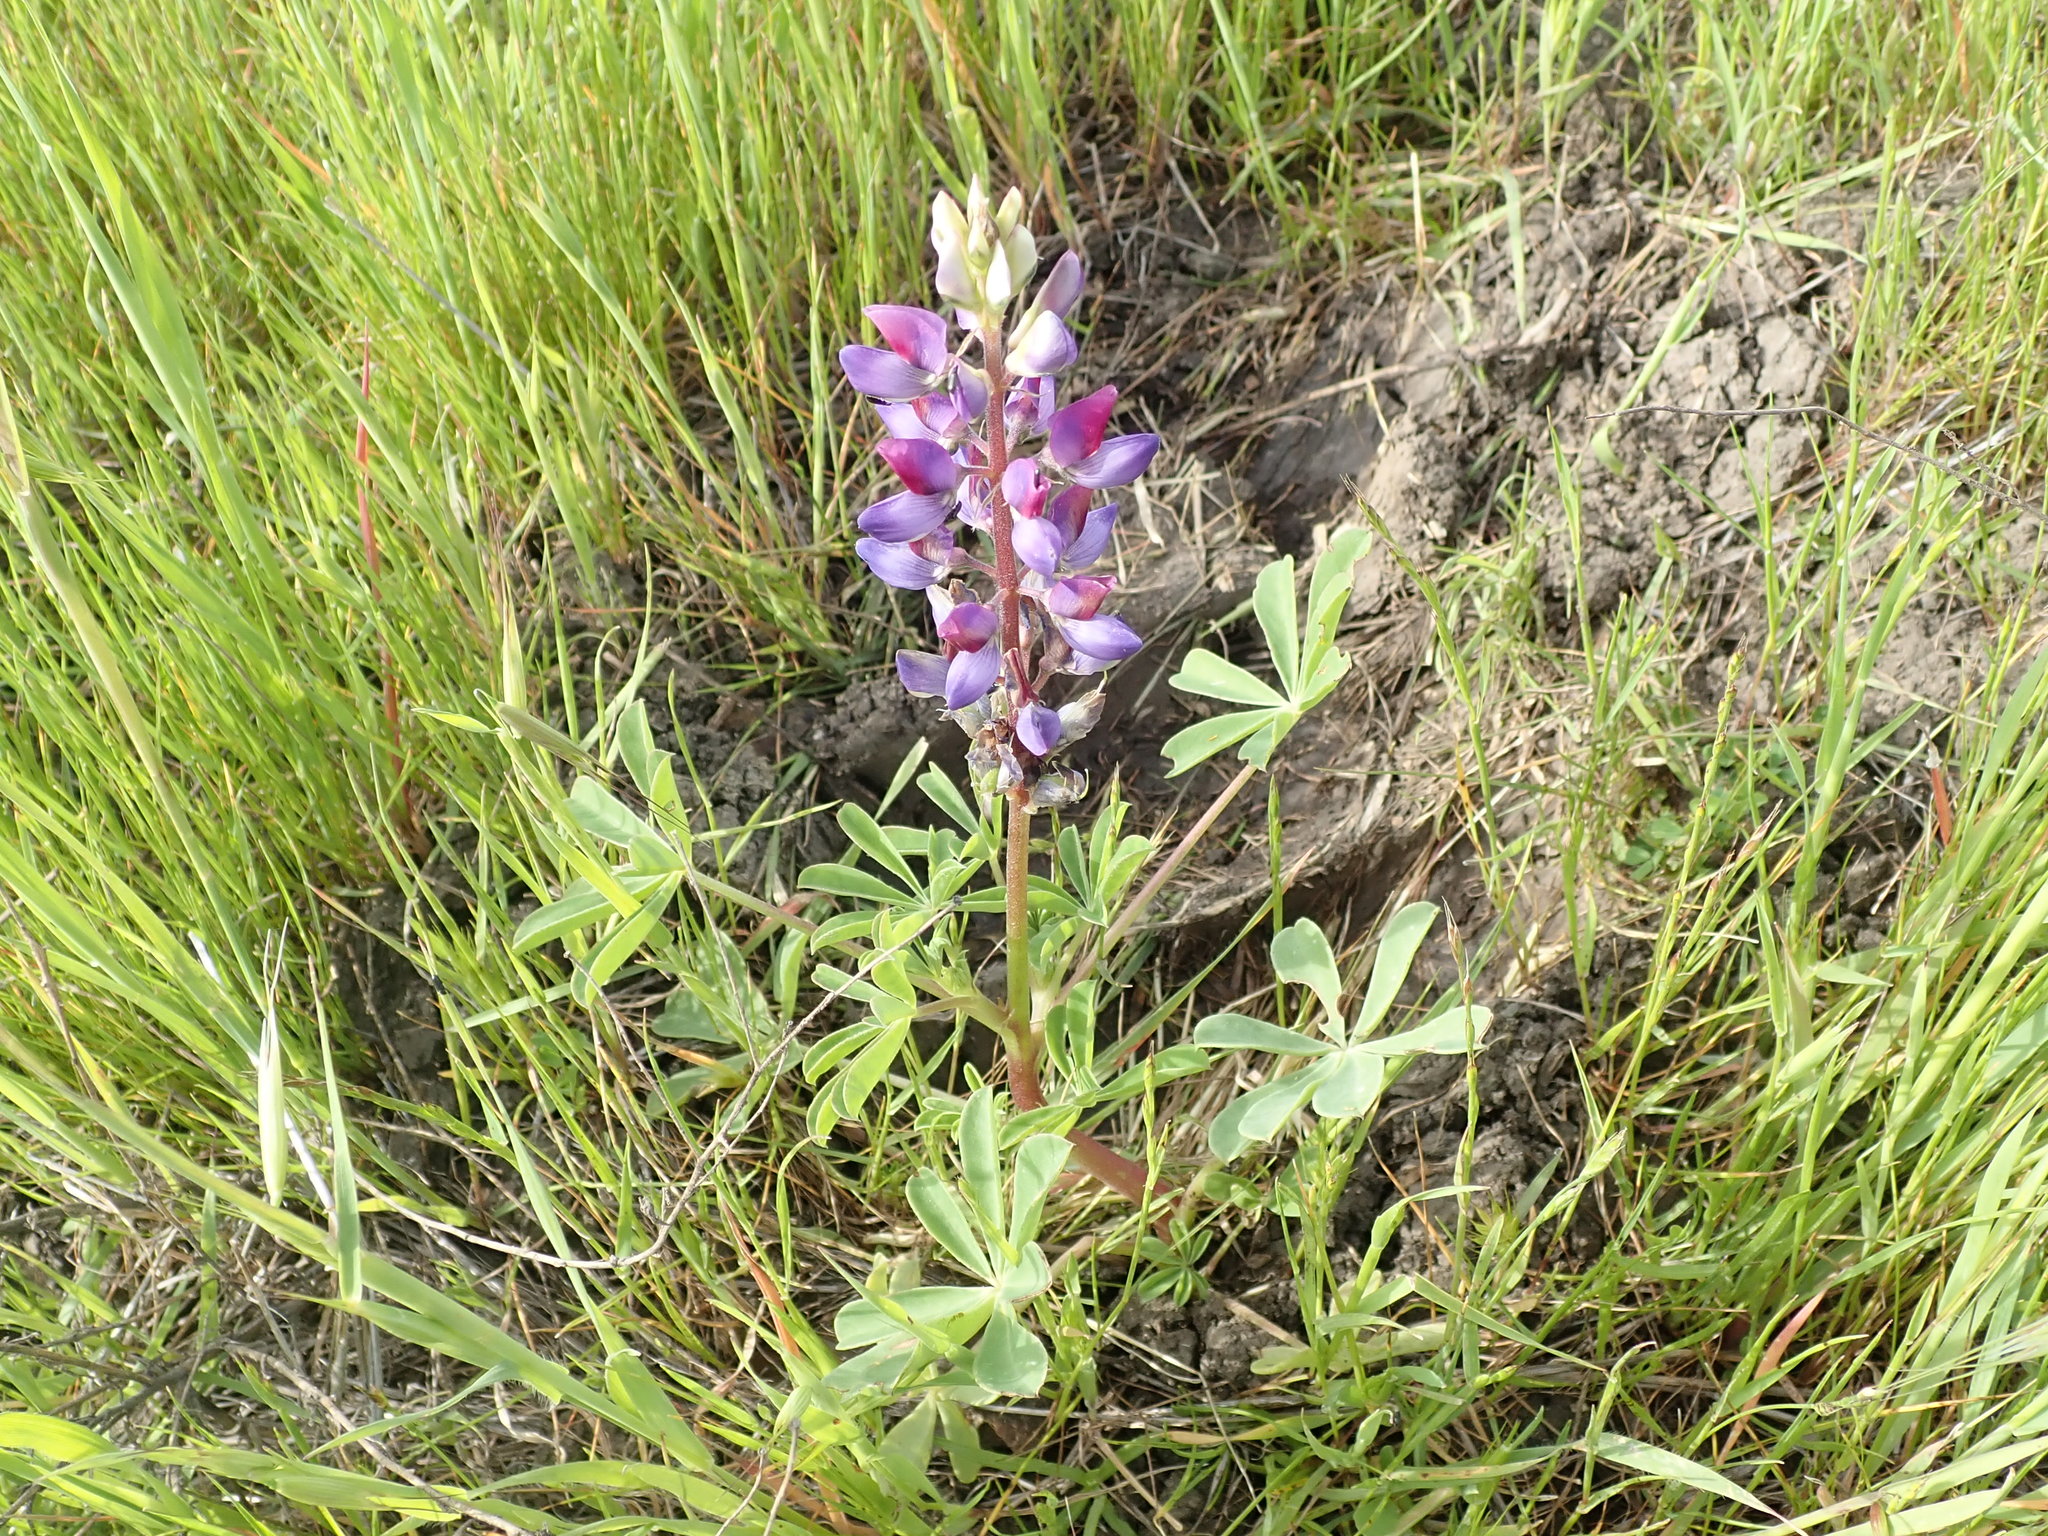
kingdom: Plantae
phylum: Tracheophyta
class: Magnoliopsida
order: Fabales
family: Fabaceae
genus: Lupinus
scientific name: Lupinus succulentus
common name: Arroyo lupine
